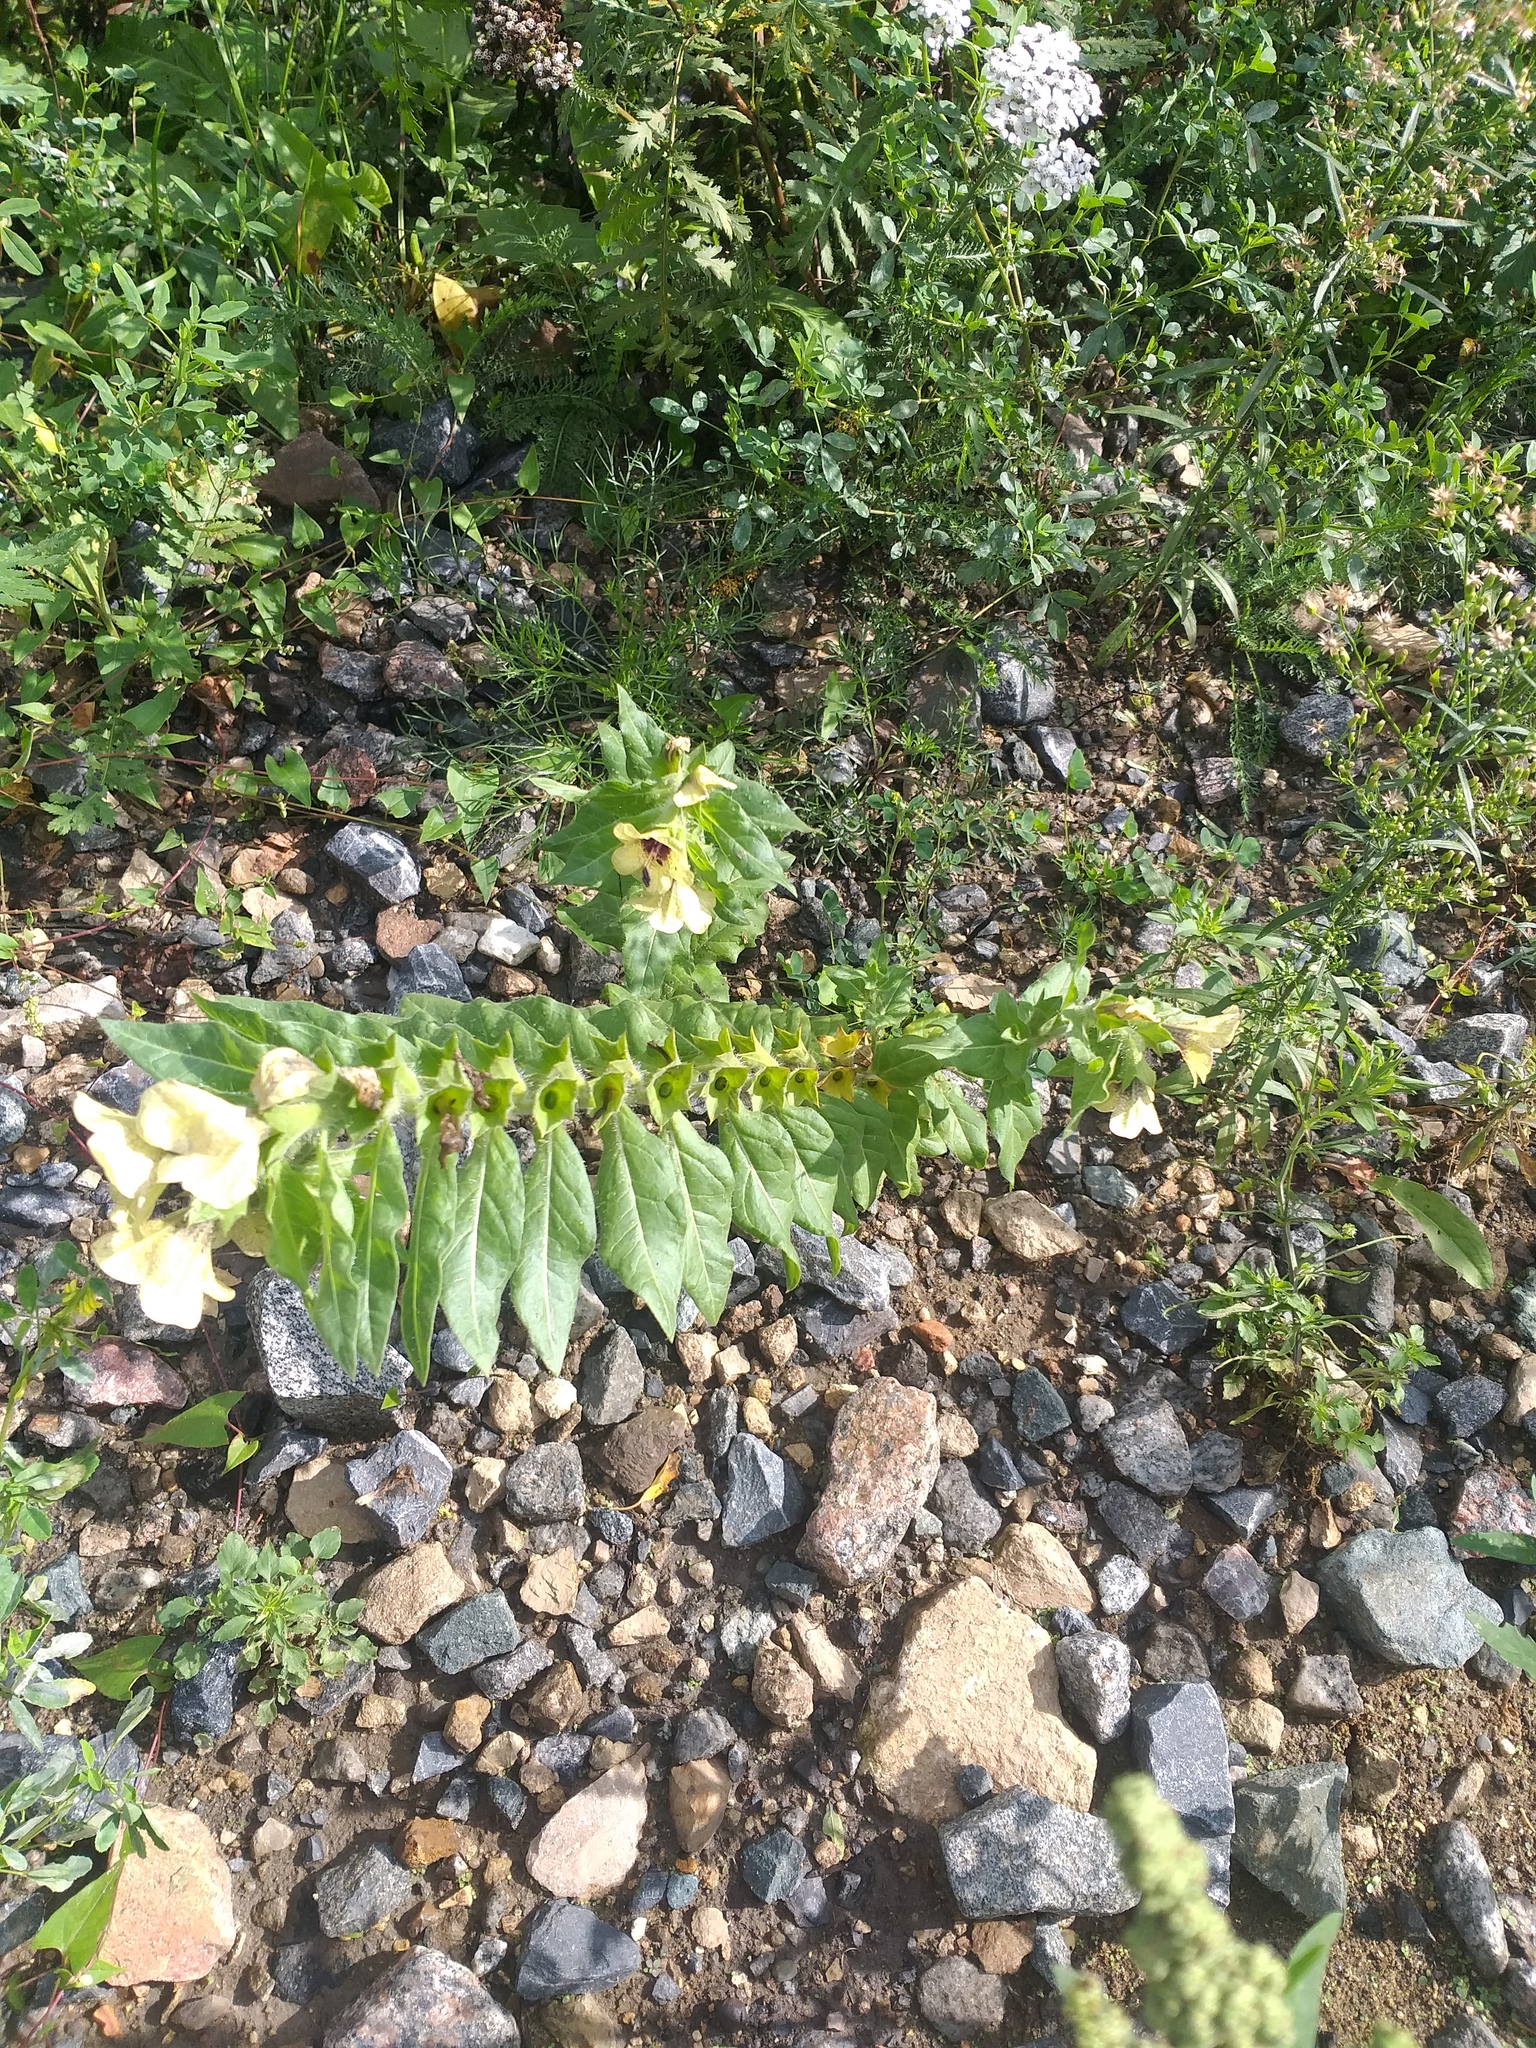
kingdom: Plantae
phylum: Tracheophyta
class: Magnoliopsida
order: Solanales
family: Solanaceae
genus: Hyoscyamus
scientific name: Hyoscyamus niger
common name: Henbane
